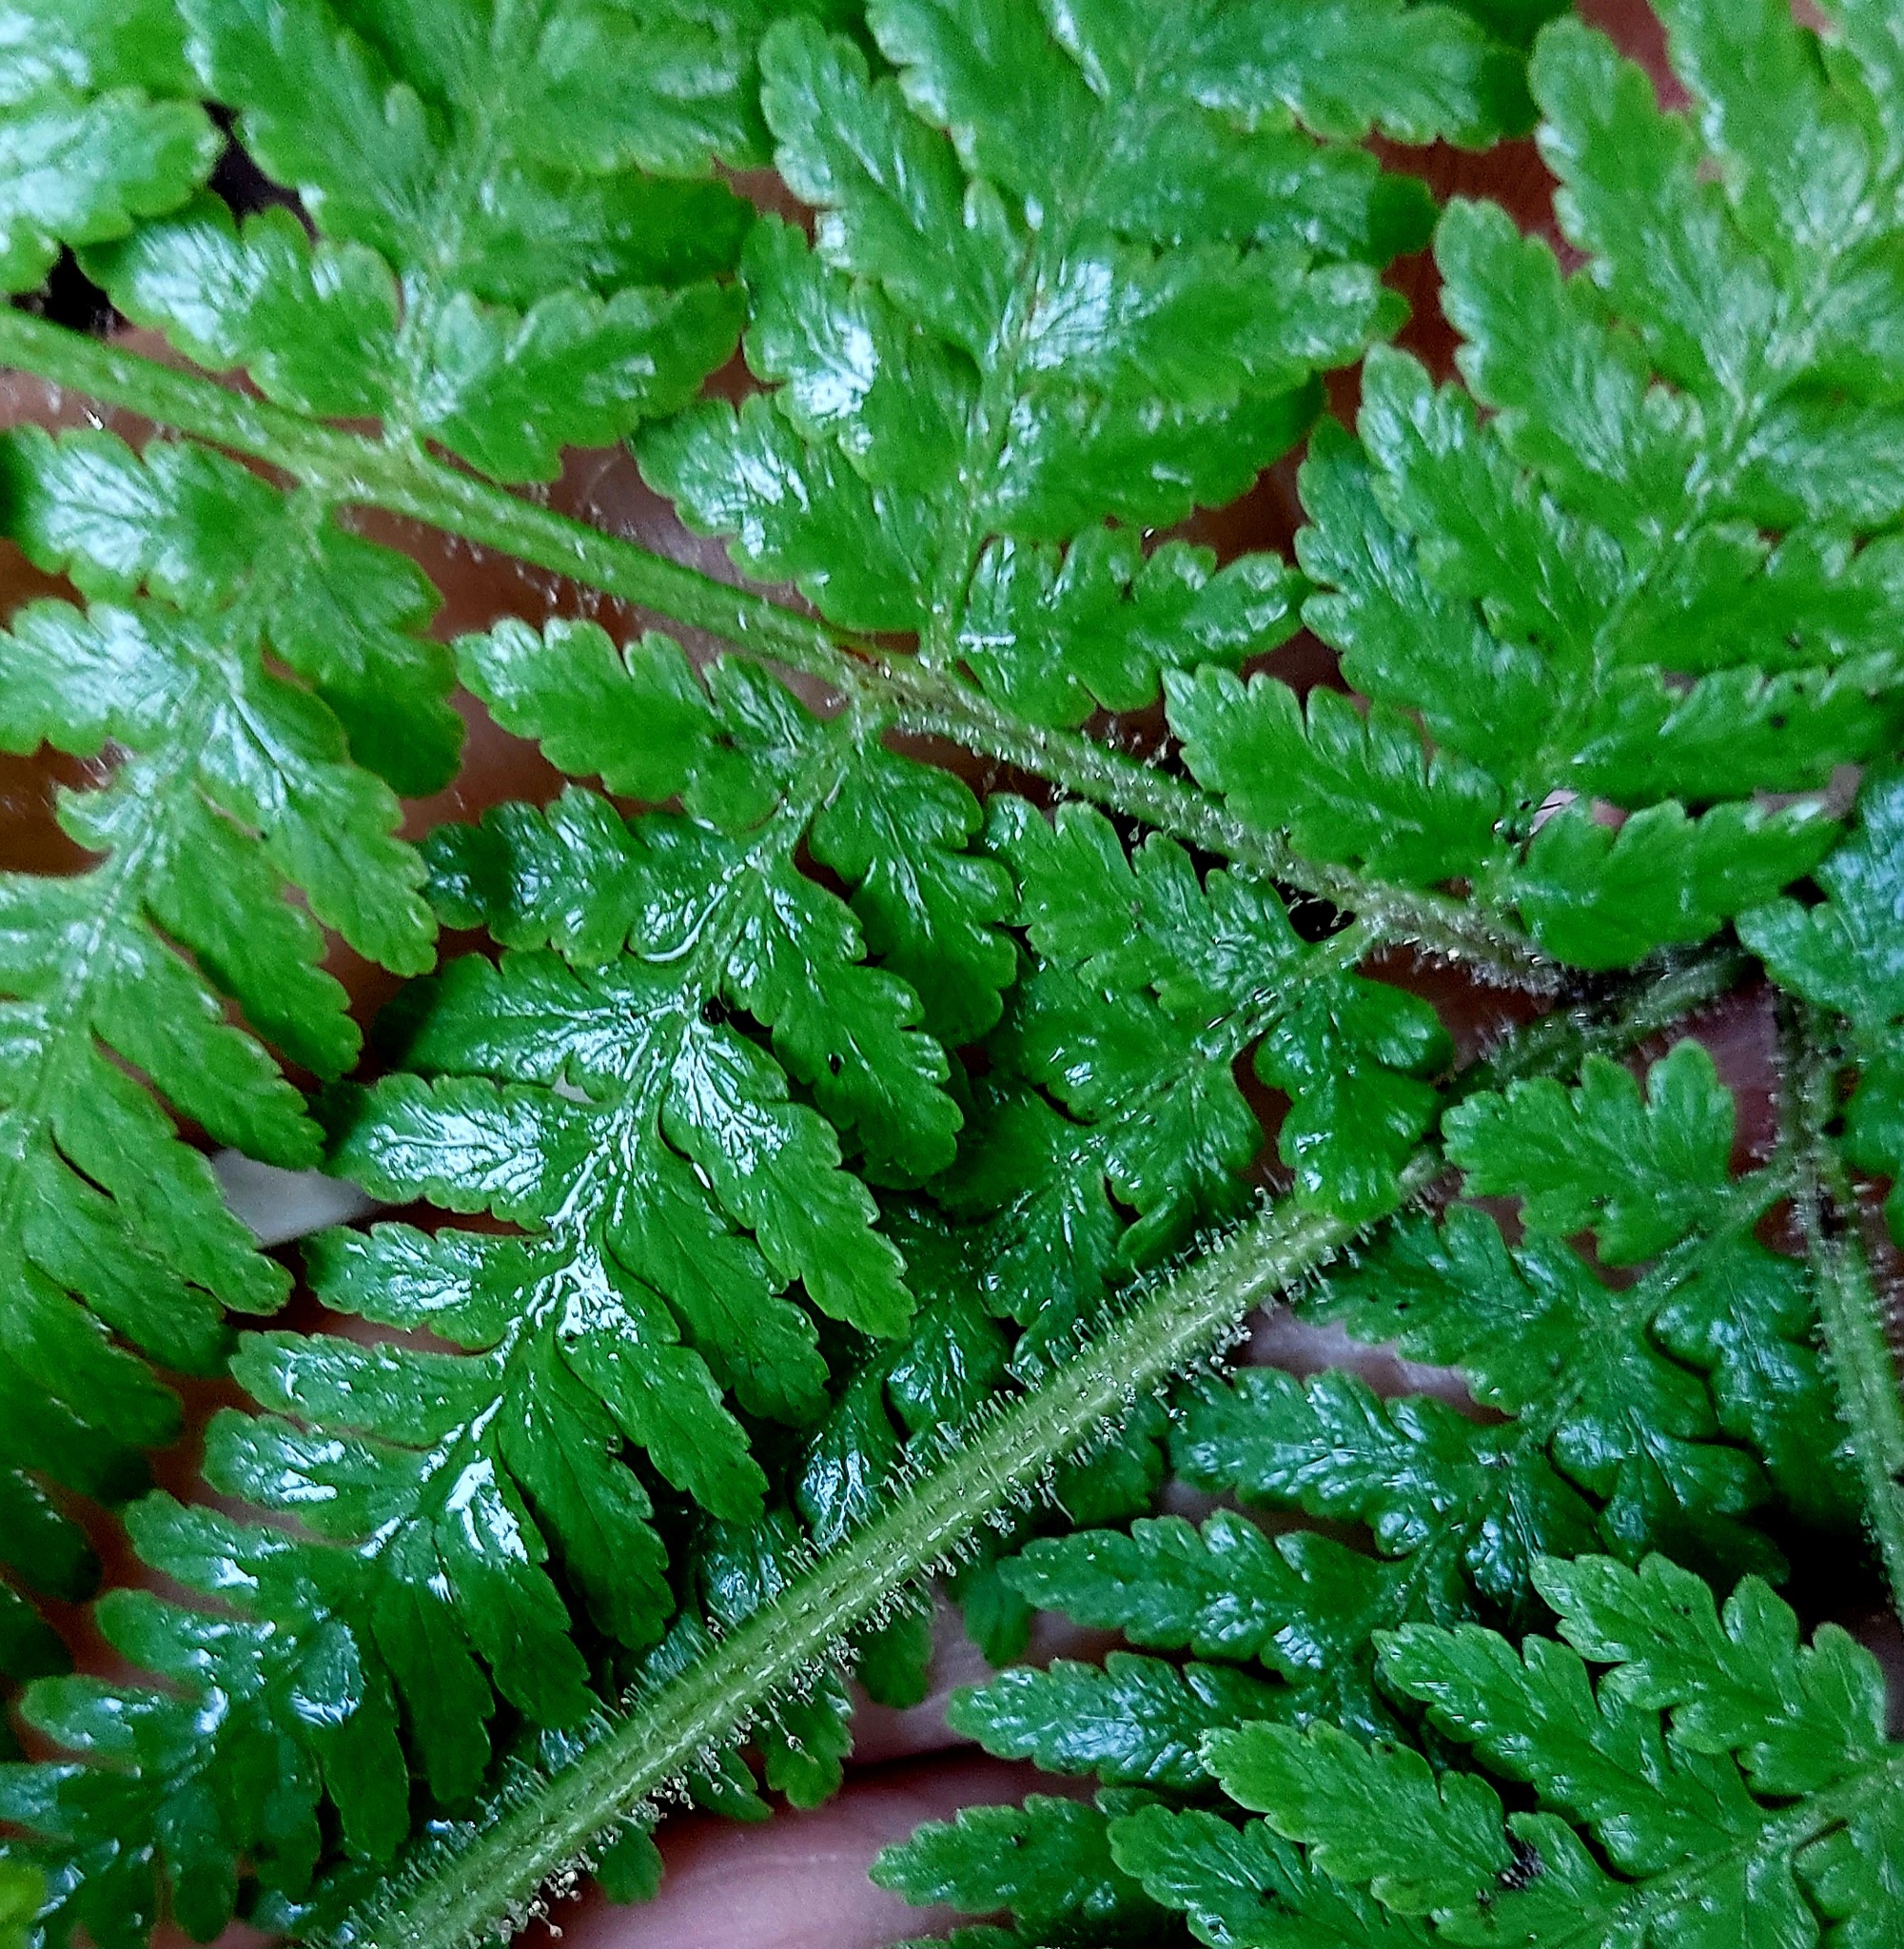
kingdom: Plantae
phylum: Tracheophyta
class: Polypodiopsida
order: Polypodiales
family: Dennstaedtiaceae
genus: Hypolepis
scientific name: Hypolepis dicksonioides
